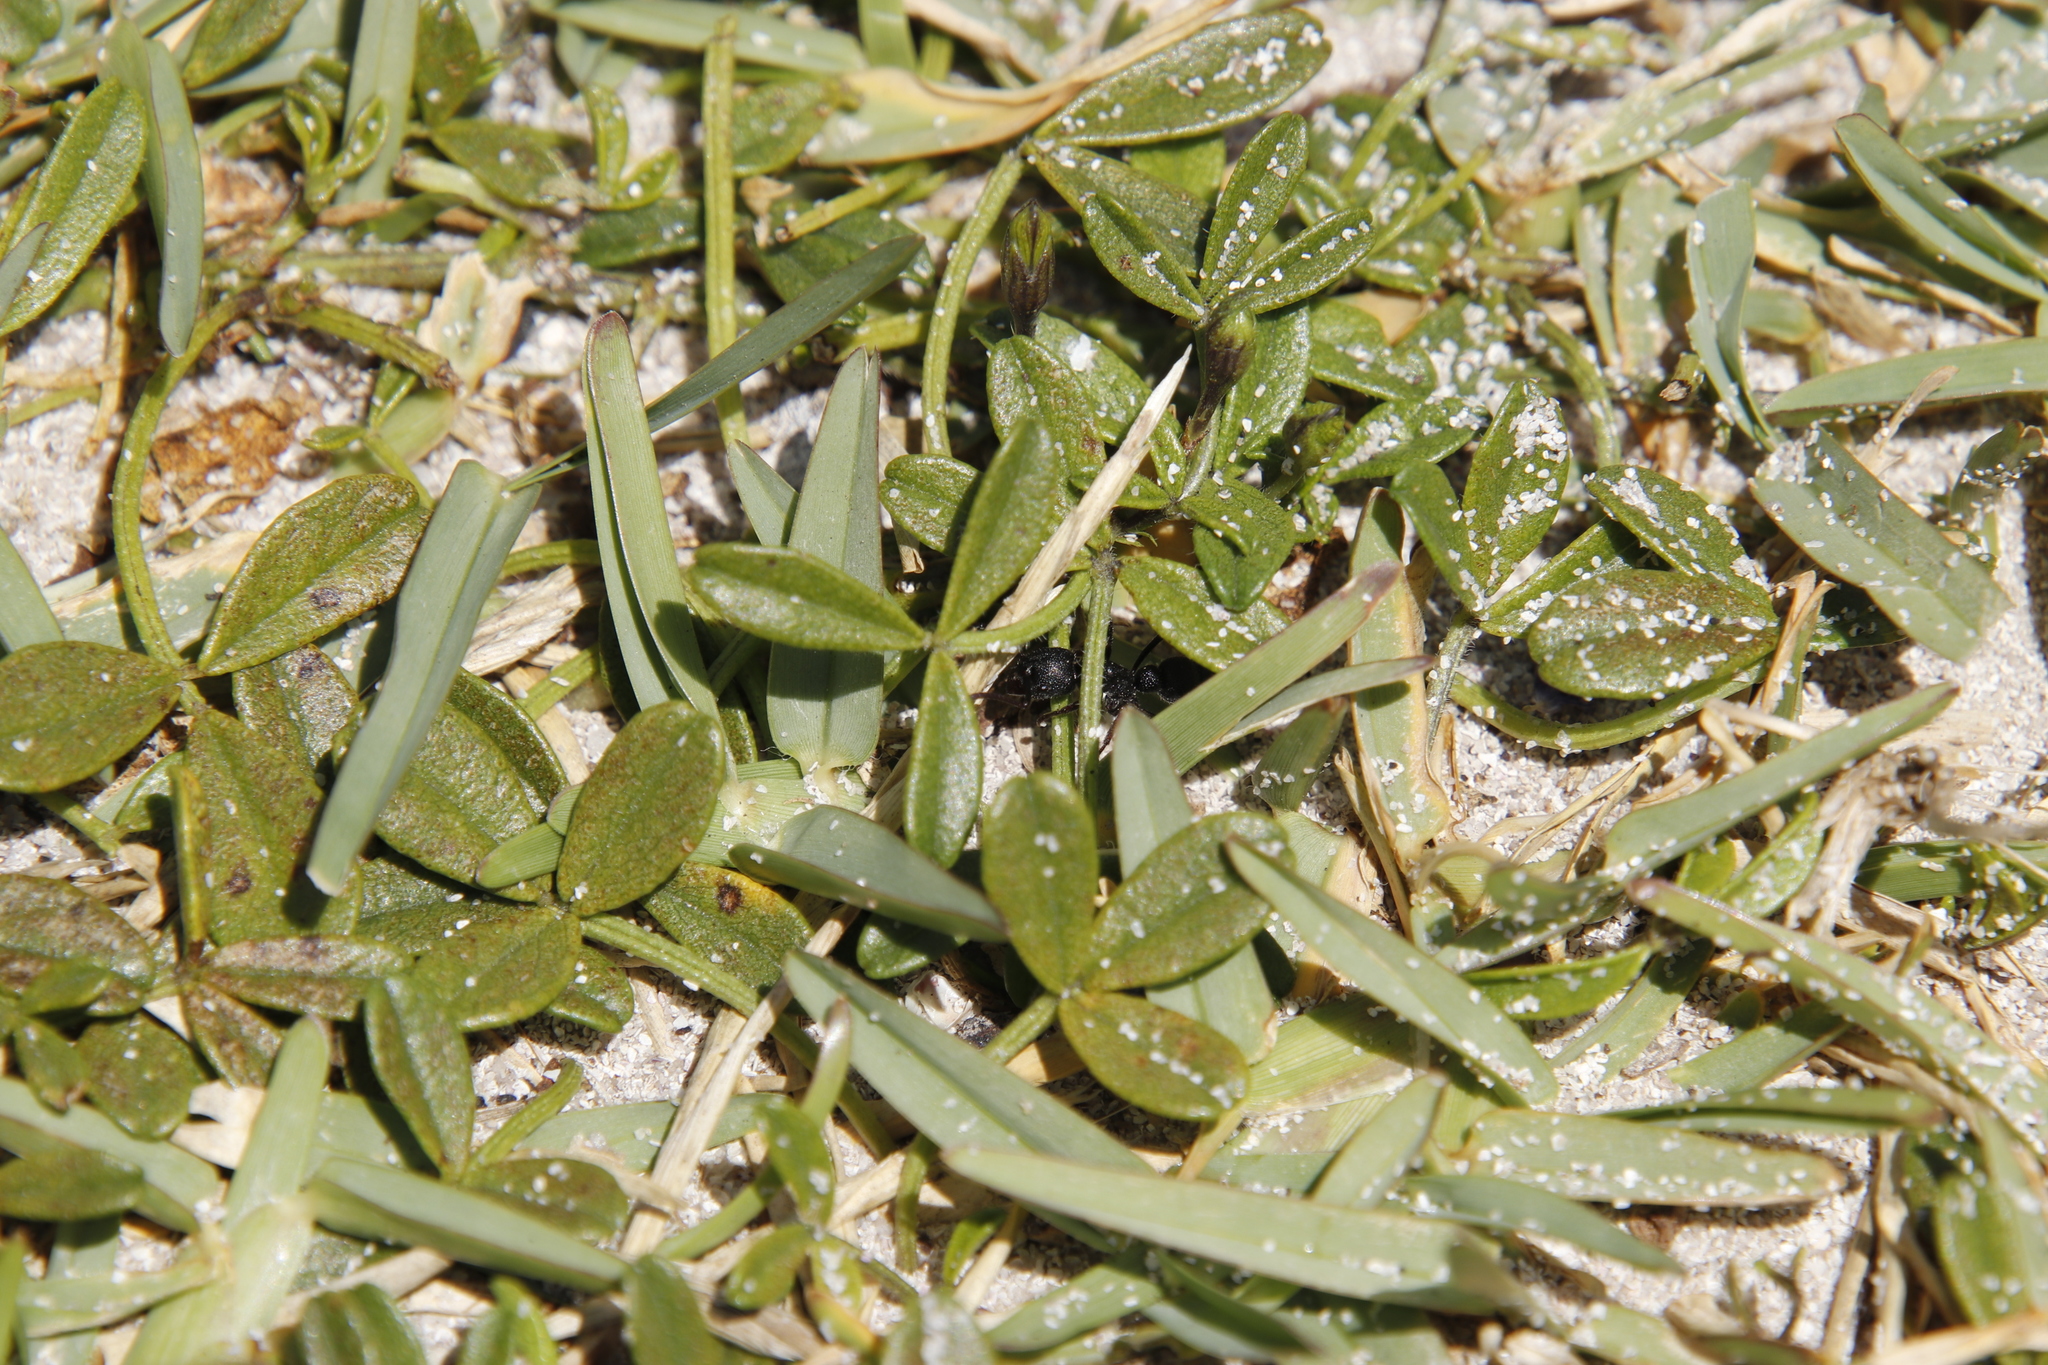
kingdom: Plantae
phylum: Tracheophyta
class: Liliopsida
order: Poales
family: Poaceae
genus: Stenotaphrum
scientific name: Stenotaphrum secundatum
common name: St. augustine grass
